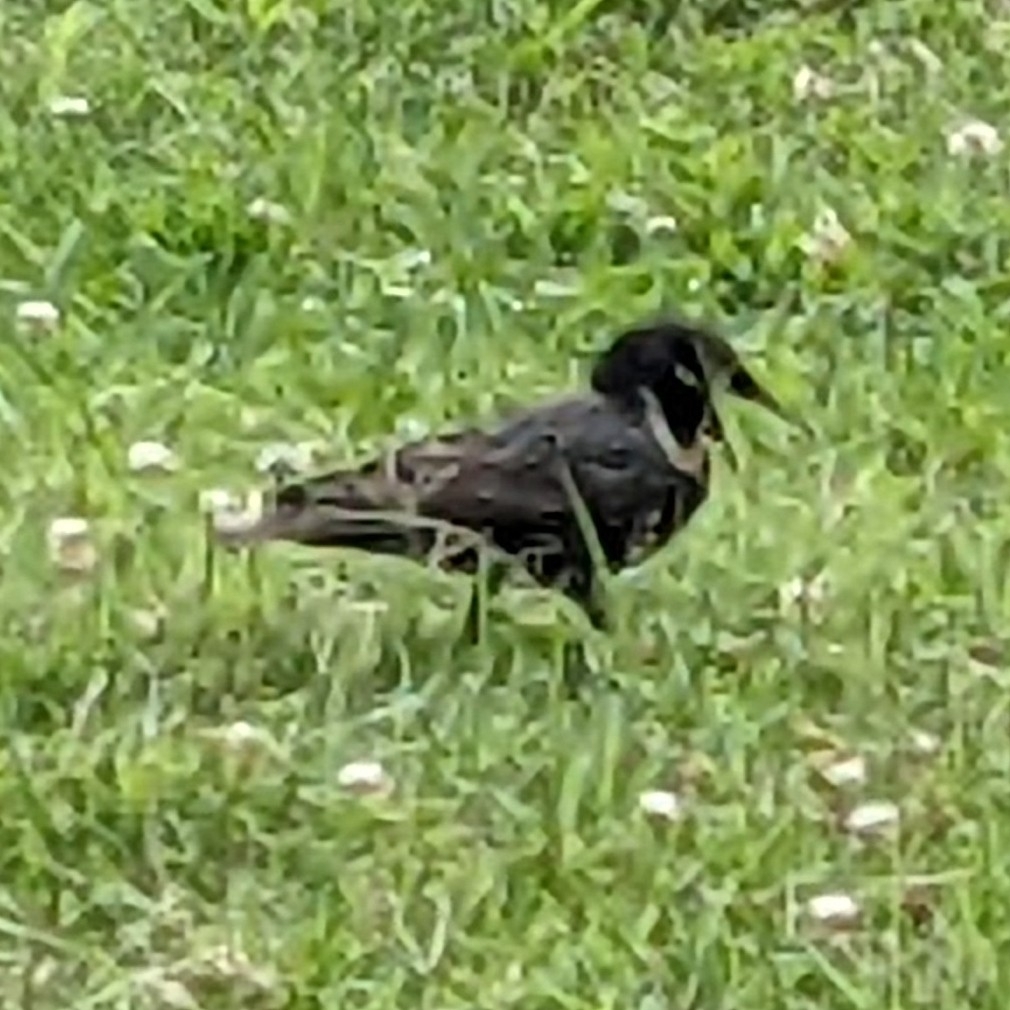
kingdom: Animalia
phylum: Chordata
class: Aves
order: Passeriformes
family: Sturnidae
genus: Sturnus
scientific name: Sturnus vulgaris
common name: Common starling
